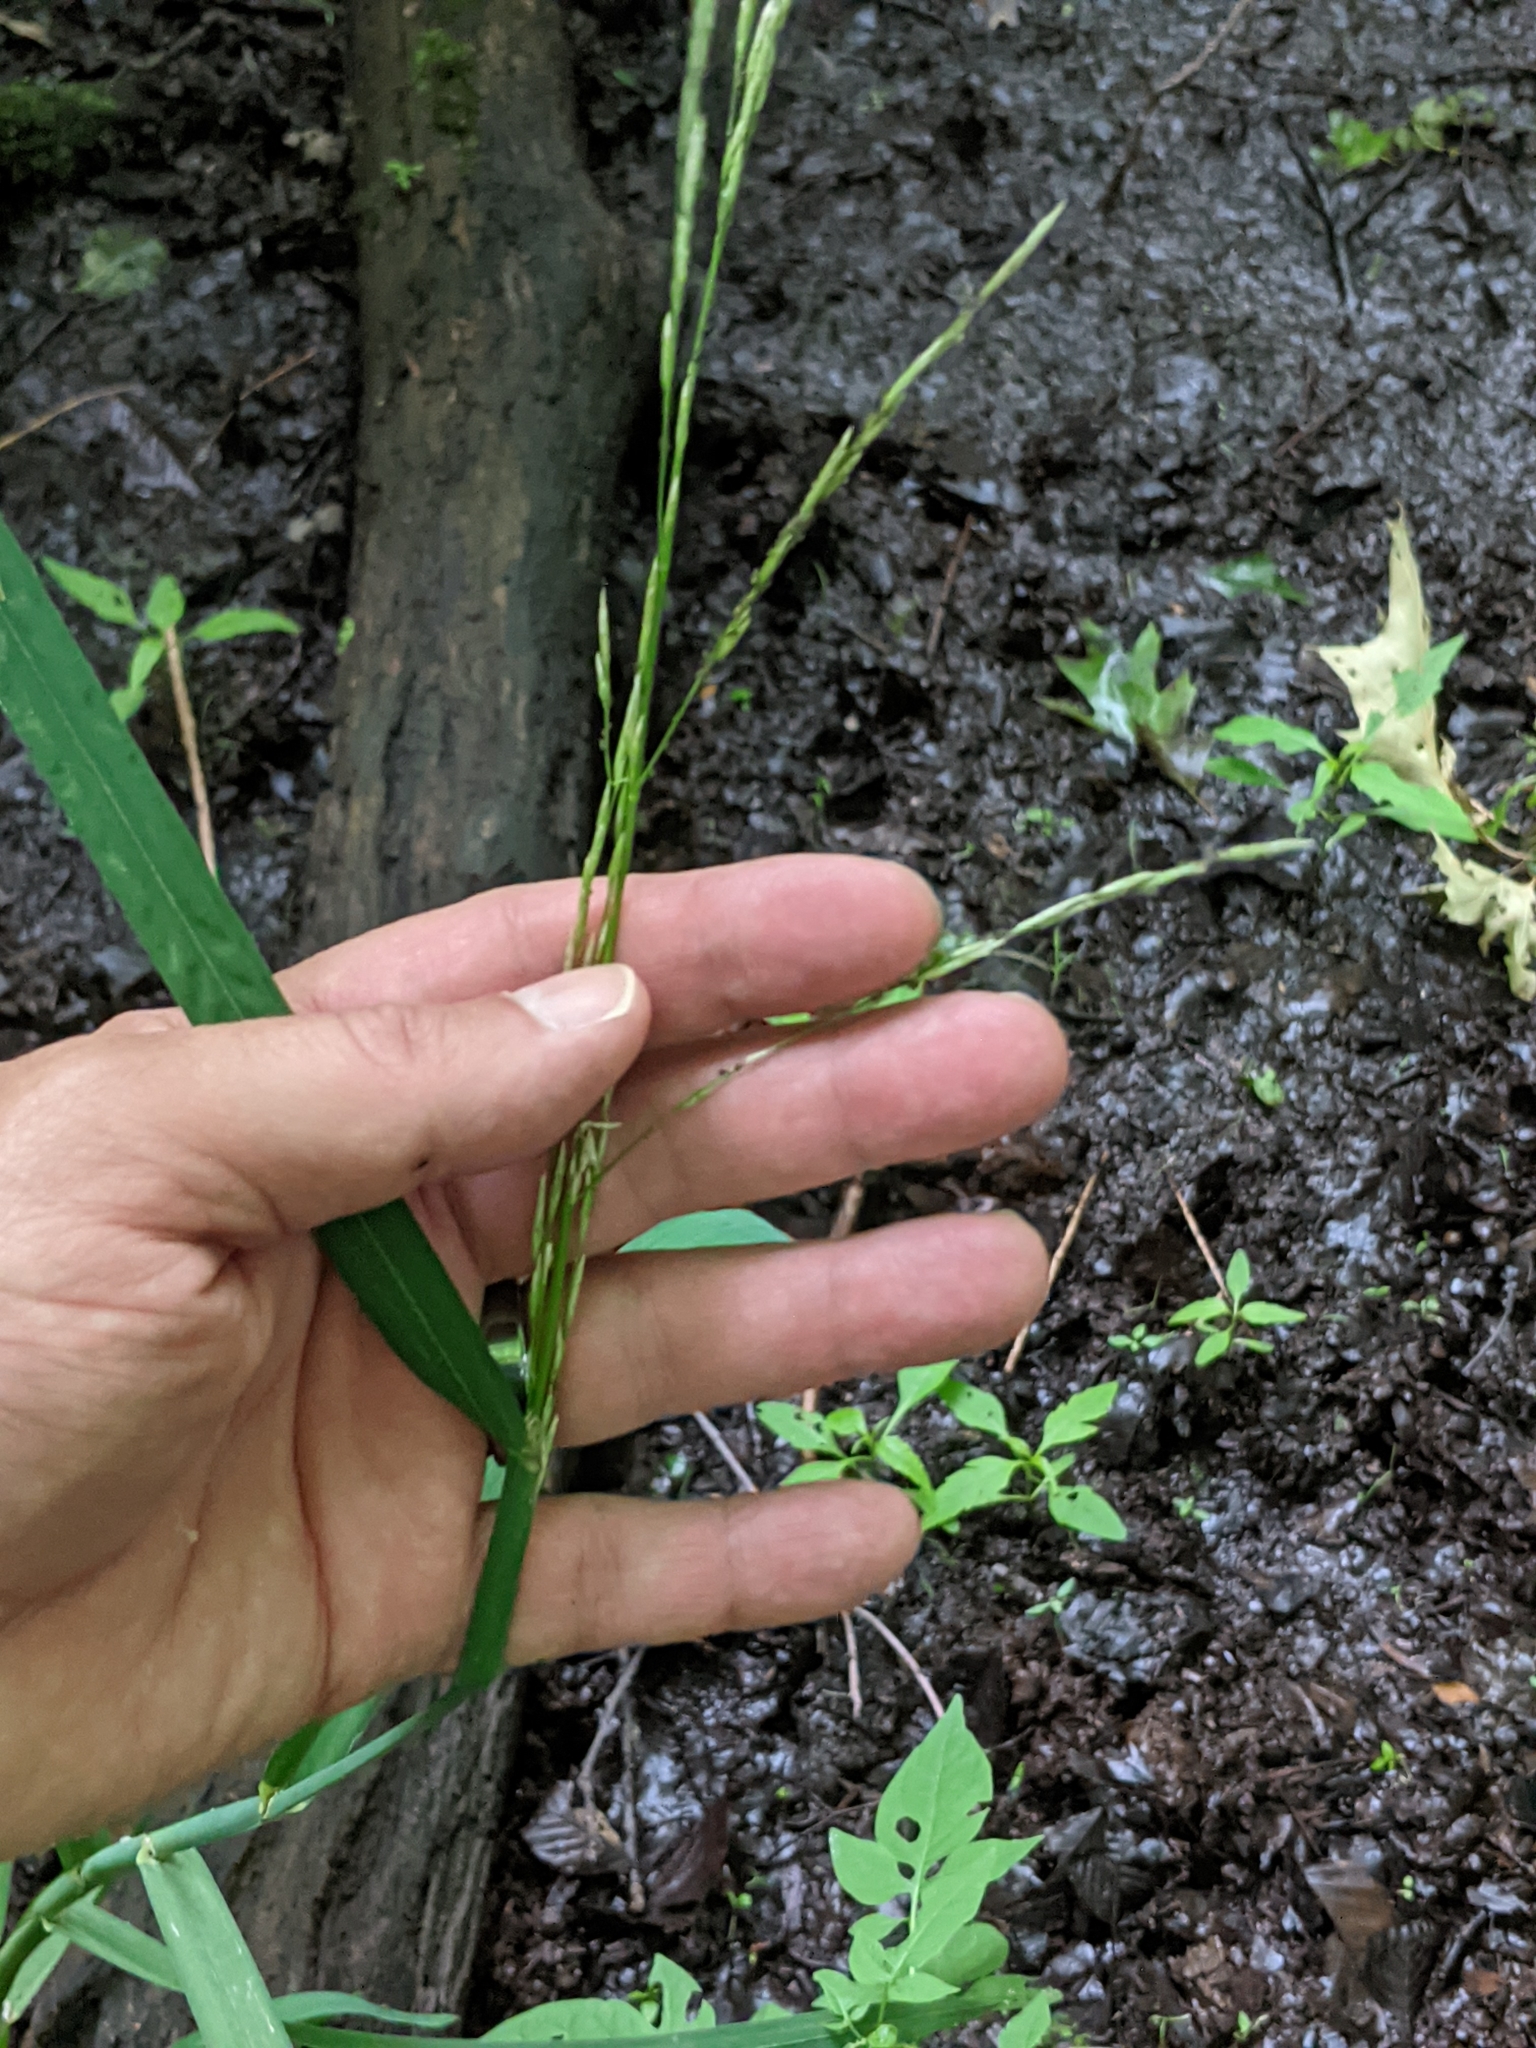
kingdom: Plantae
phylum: Tracheophyta
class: Liliopsida
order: Poales
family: Poaceae
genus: Glyceria
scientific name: Glyceria septentrionalis
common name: Eastern mannagrass
